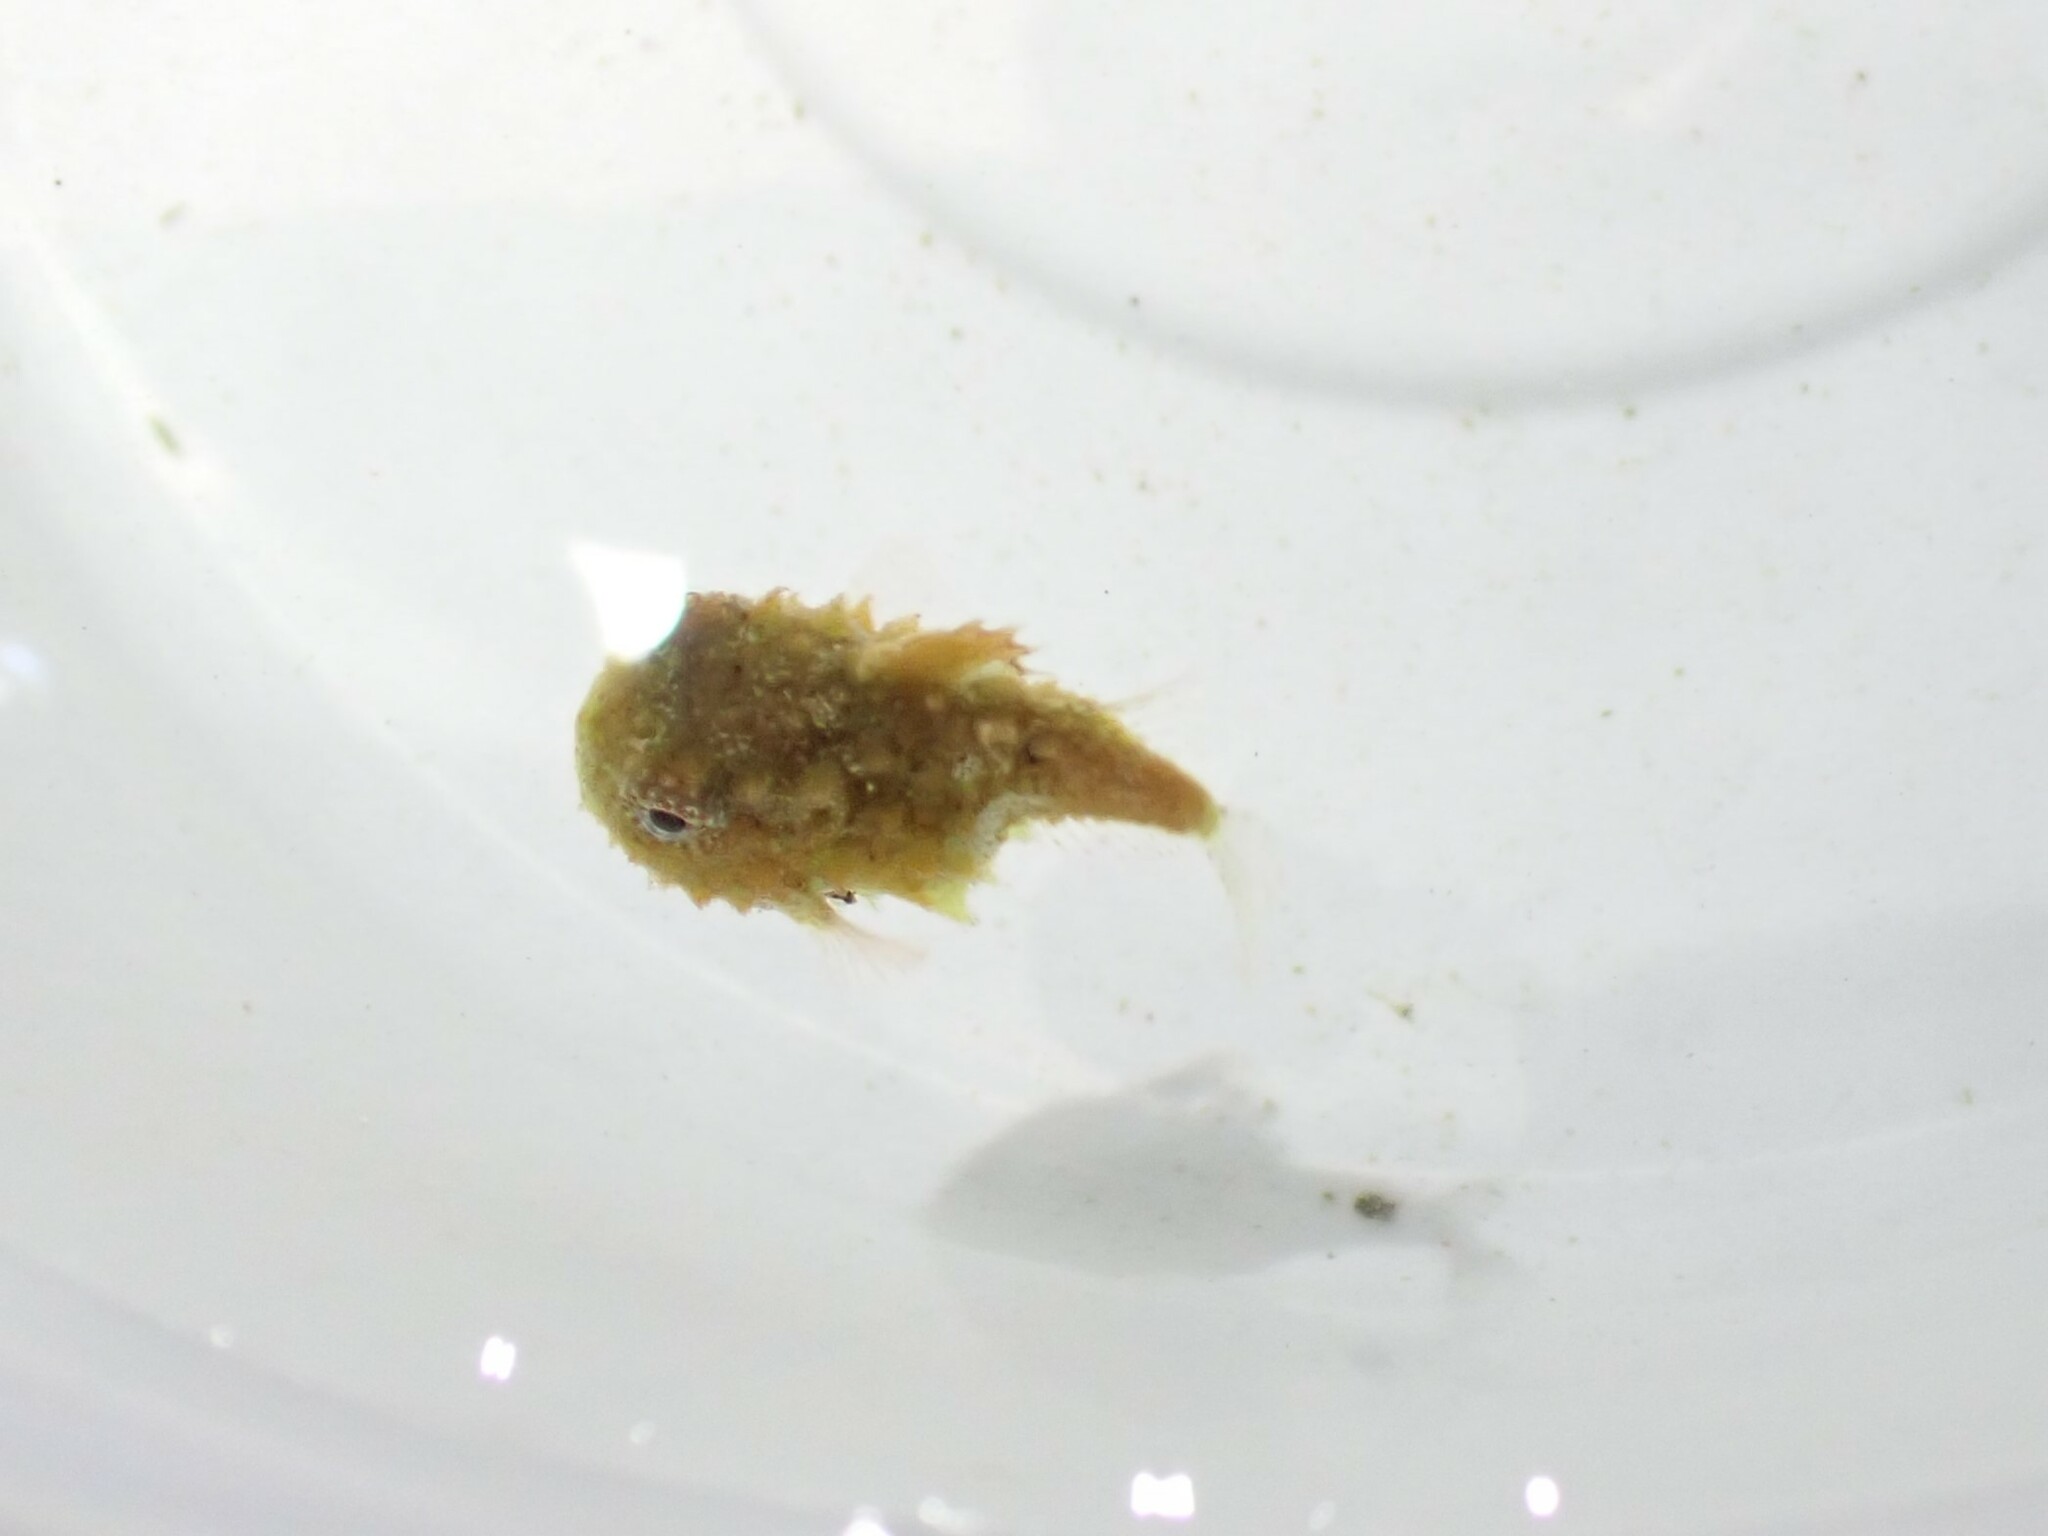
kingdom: Animalia
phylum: Chordata
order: Scorpaeniformes
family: Cyclopteridae
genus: Eumicrotremus
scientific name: Eumicrotremus orbis
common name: Pacific spiny lumpsucker
